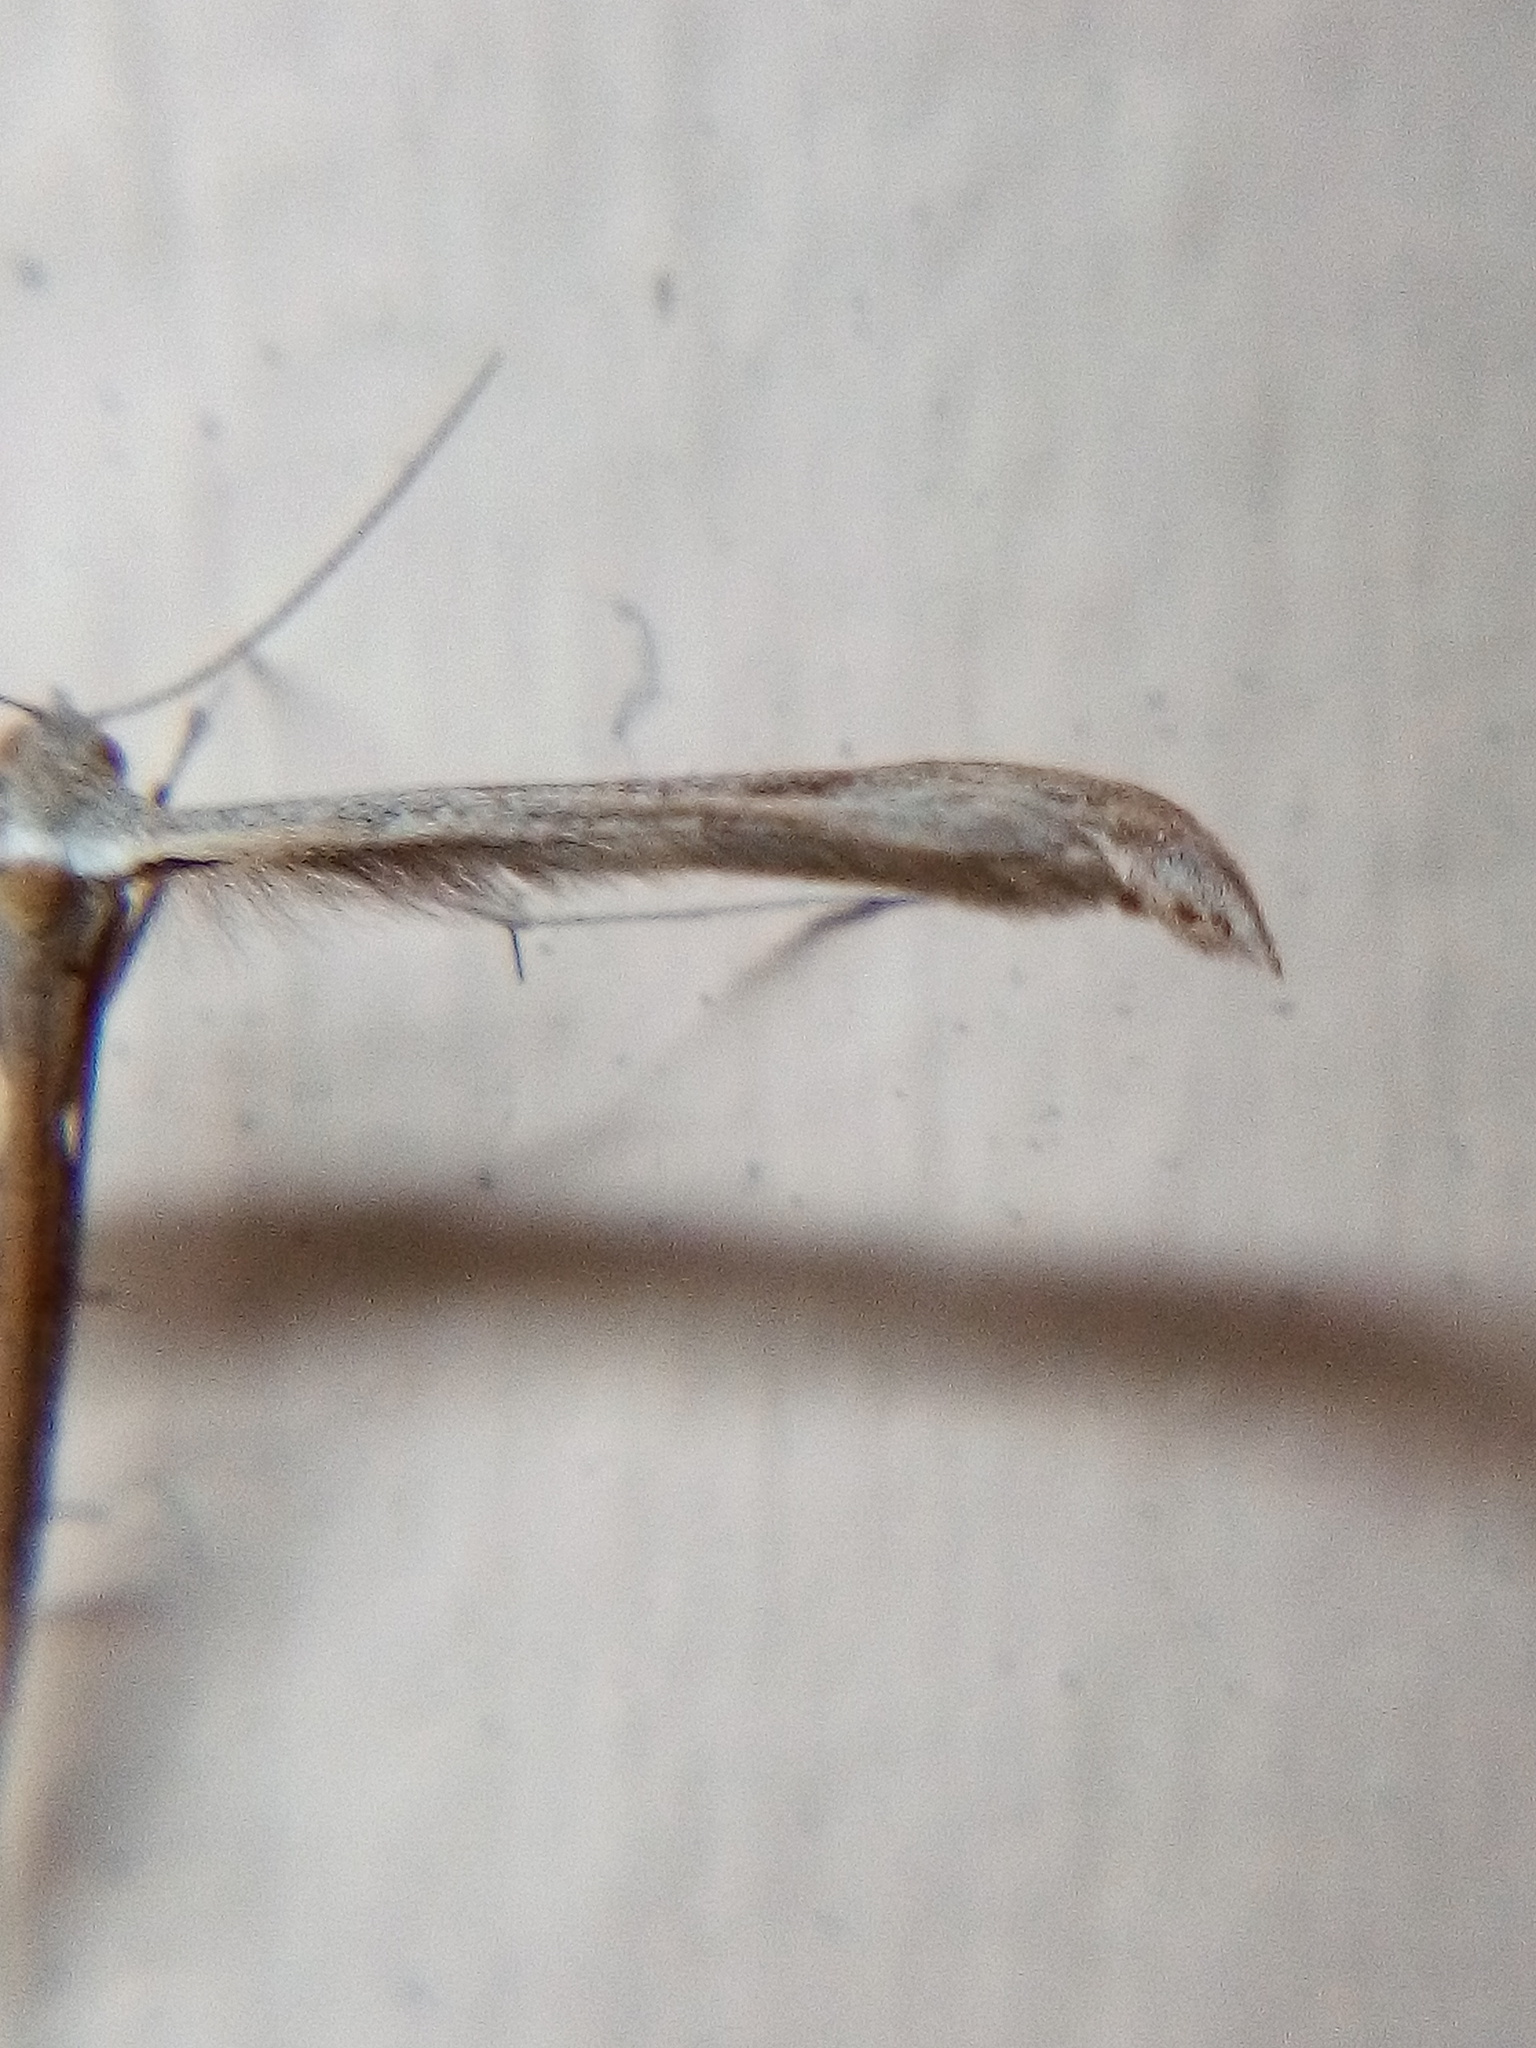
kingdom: Animalia
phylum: Arthropoda
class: Insecta
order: Lepidoptera
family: Pterophoridae
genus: Stenoptilia
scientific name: Stenoptilia zophodactylus
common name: Dowdy plume
